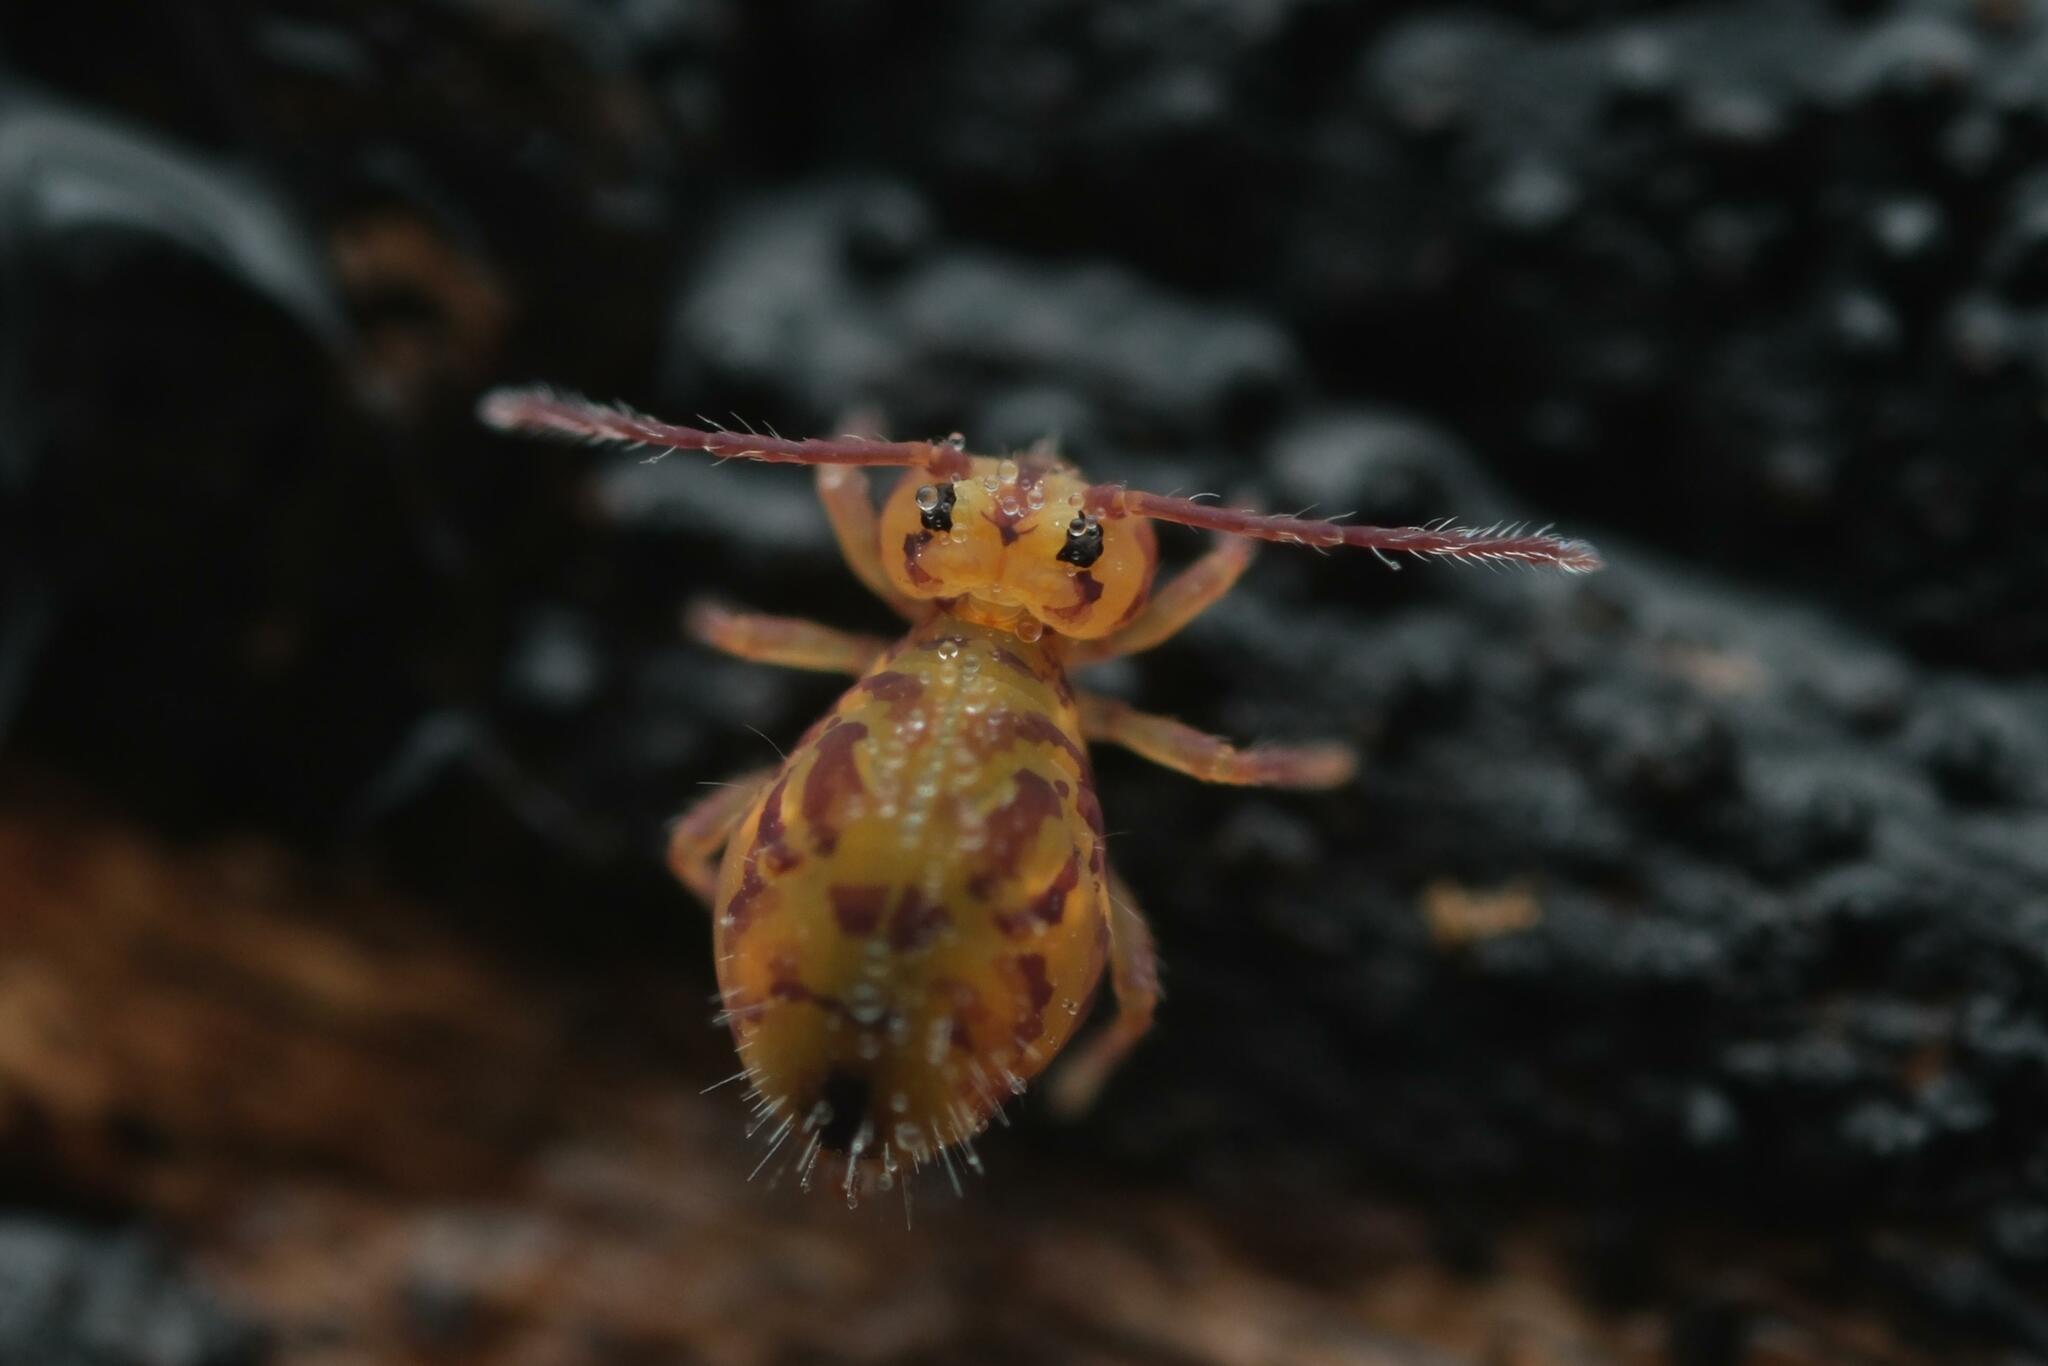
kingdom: Animalia
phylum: Arthropoda
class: Collembola
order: Symphypleona
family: Dicyrtomidae
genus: Dicyrtomina
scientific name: Dicyrtomina ornata
